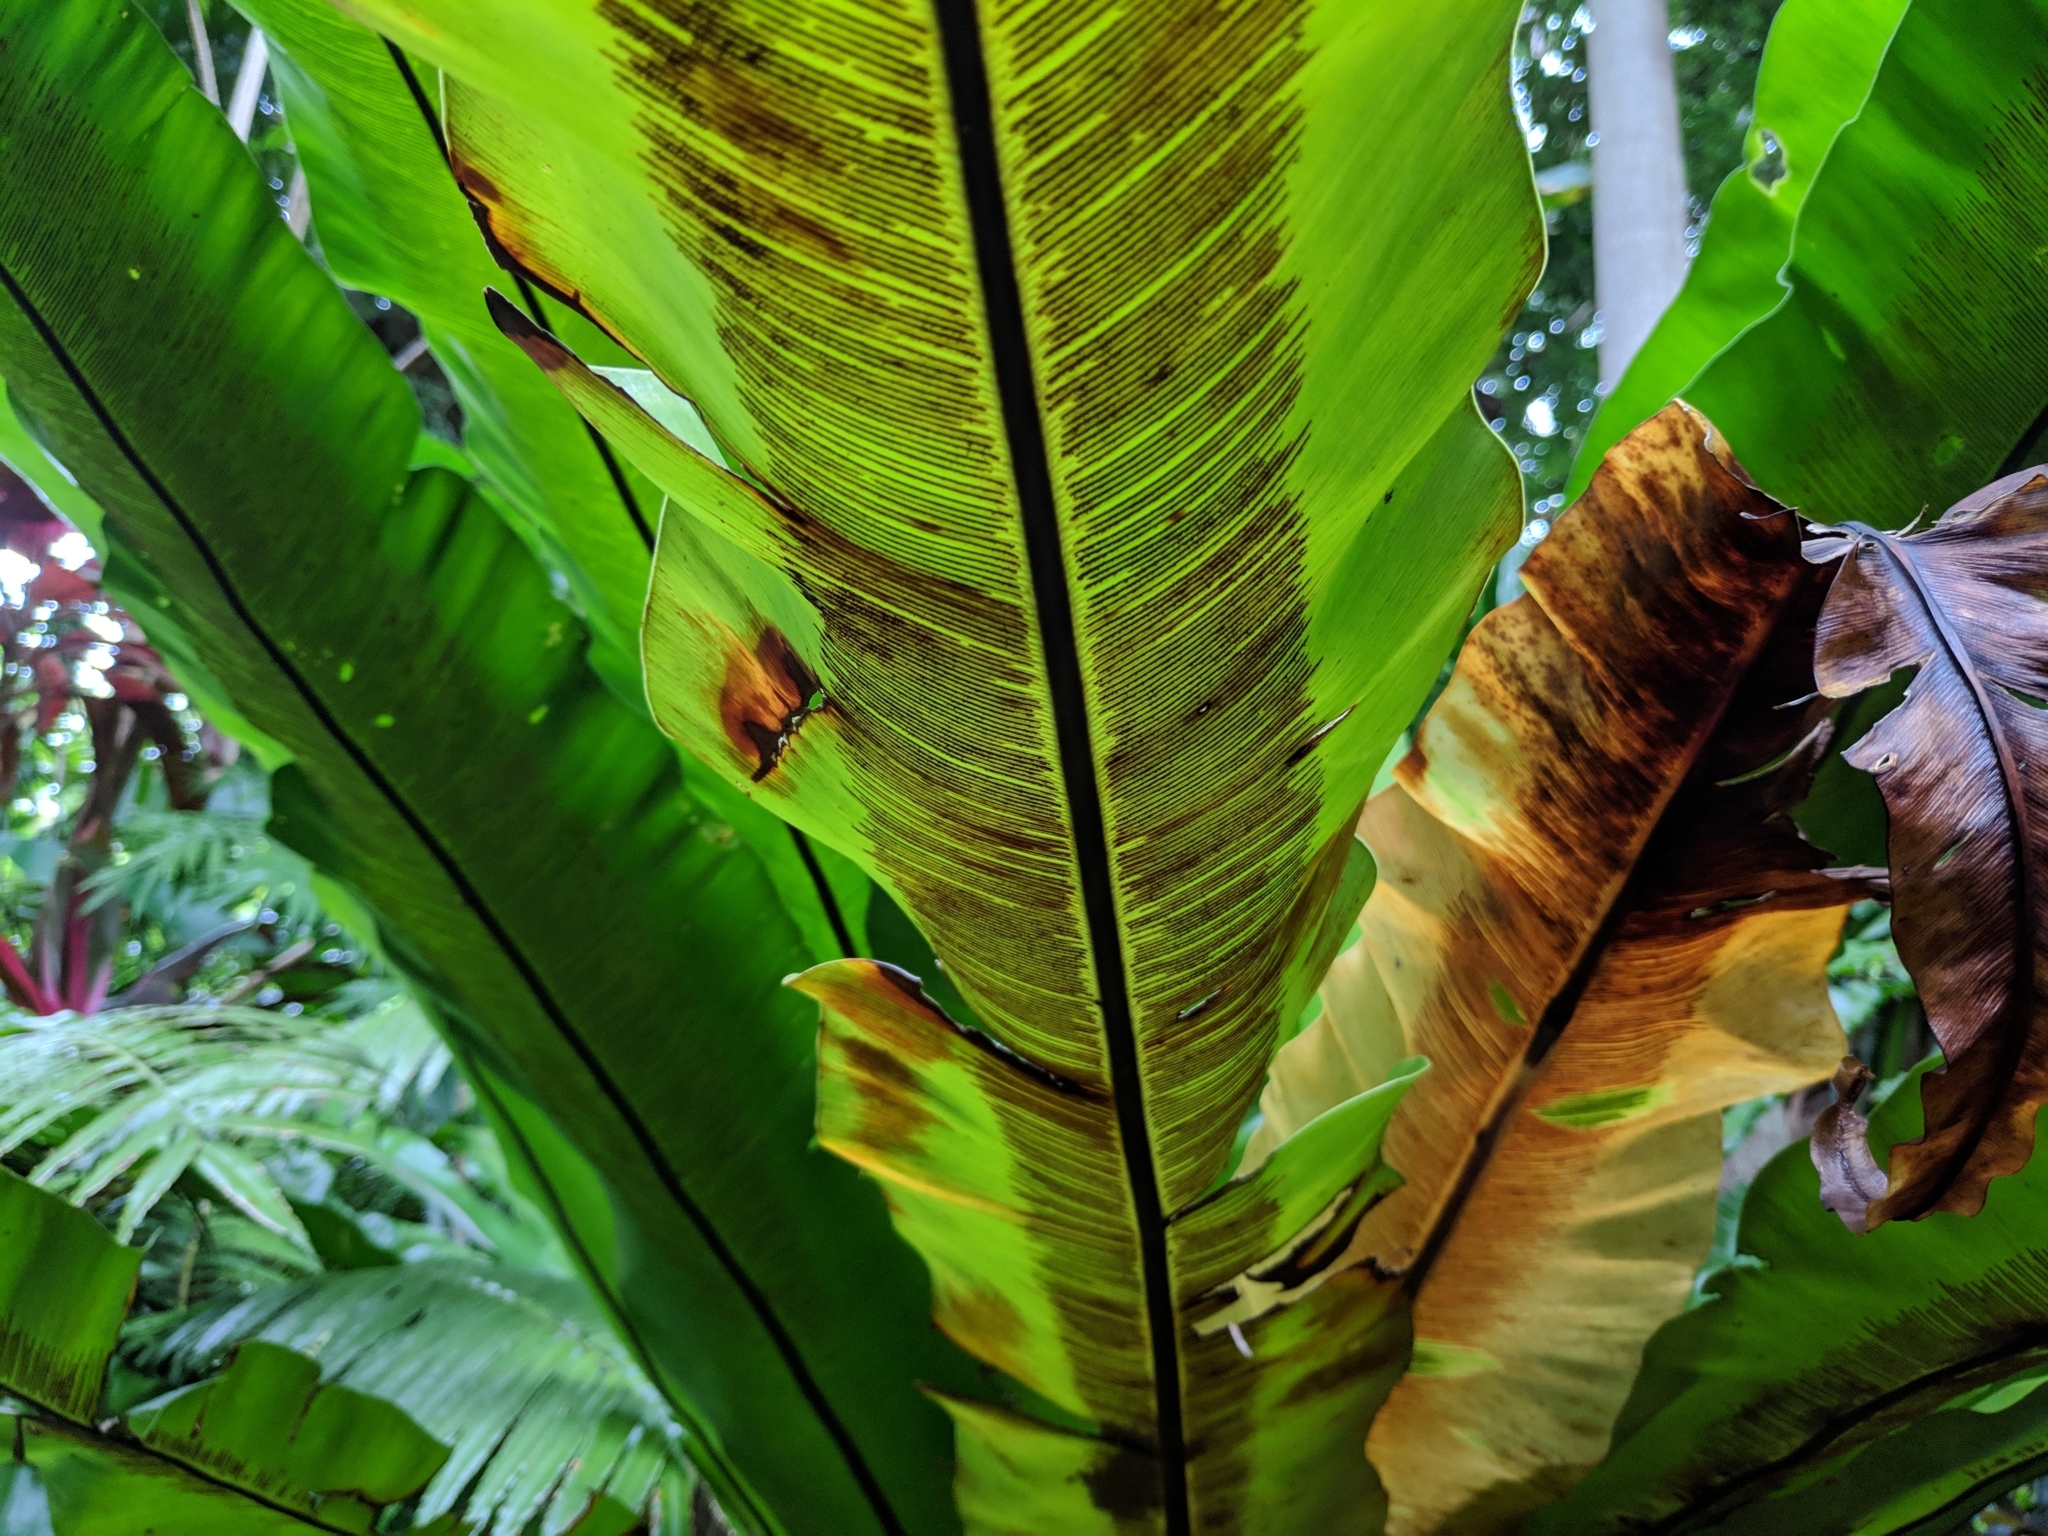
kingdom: Plantae
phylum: Tracheophyta
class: Polypodiopsida
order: Polypodiales
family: Aspleniaceae
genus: Asplenium
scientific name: Asplenium nidus
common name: Bird's-nest fern
